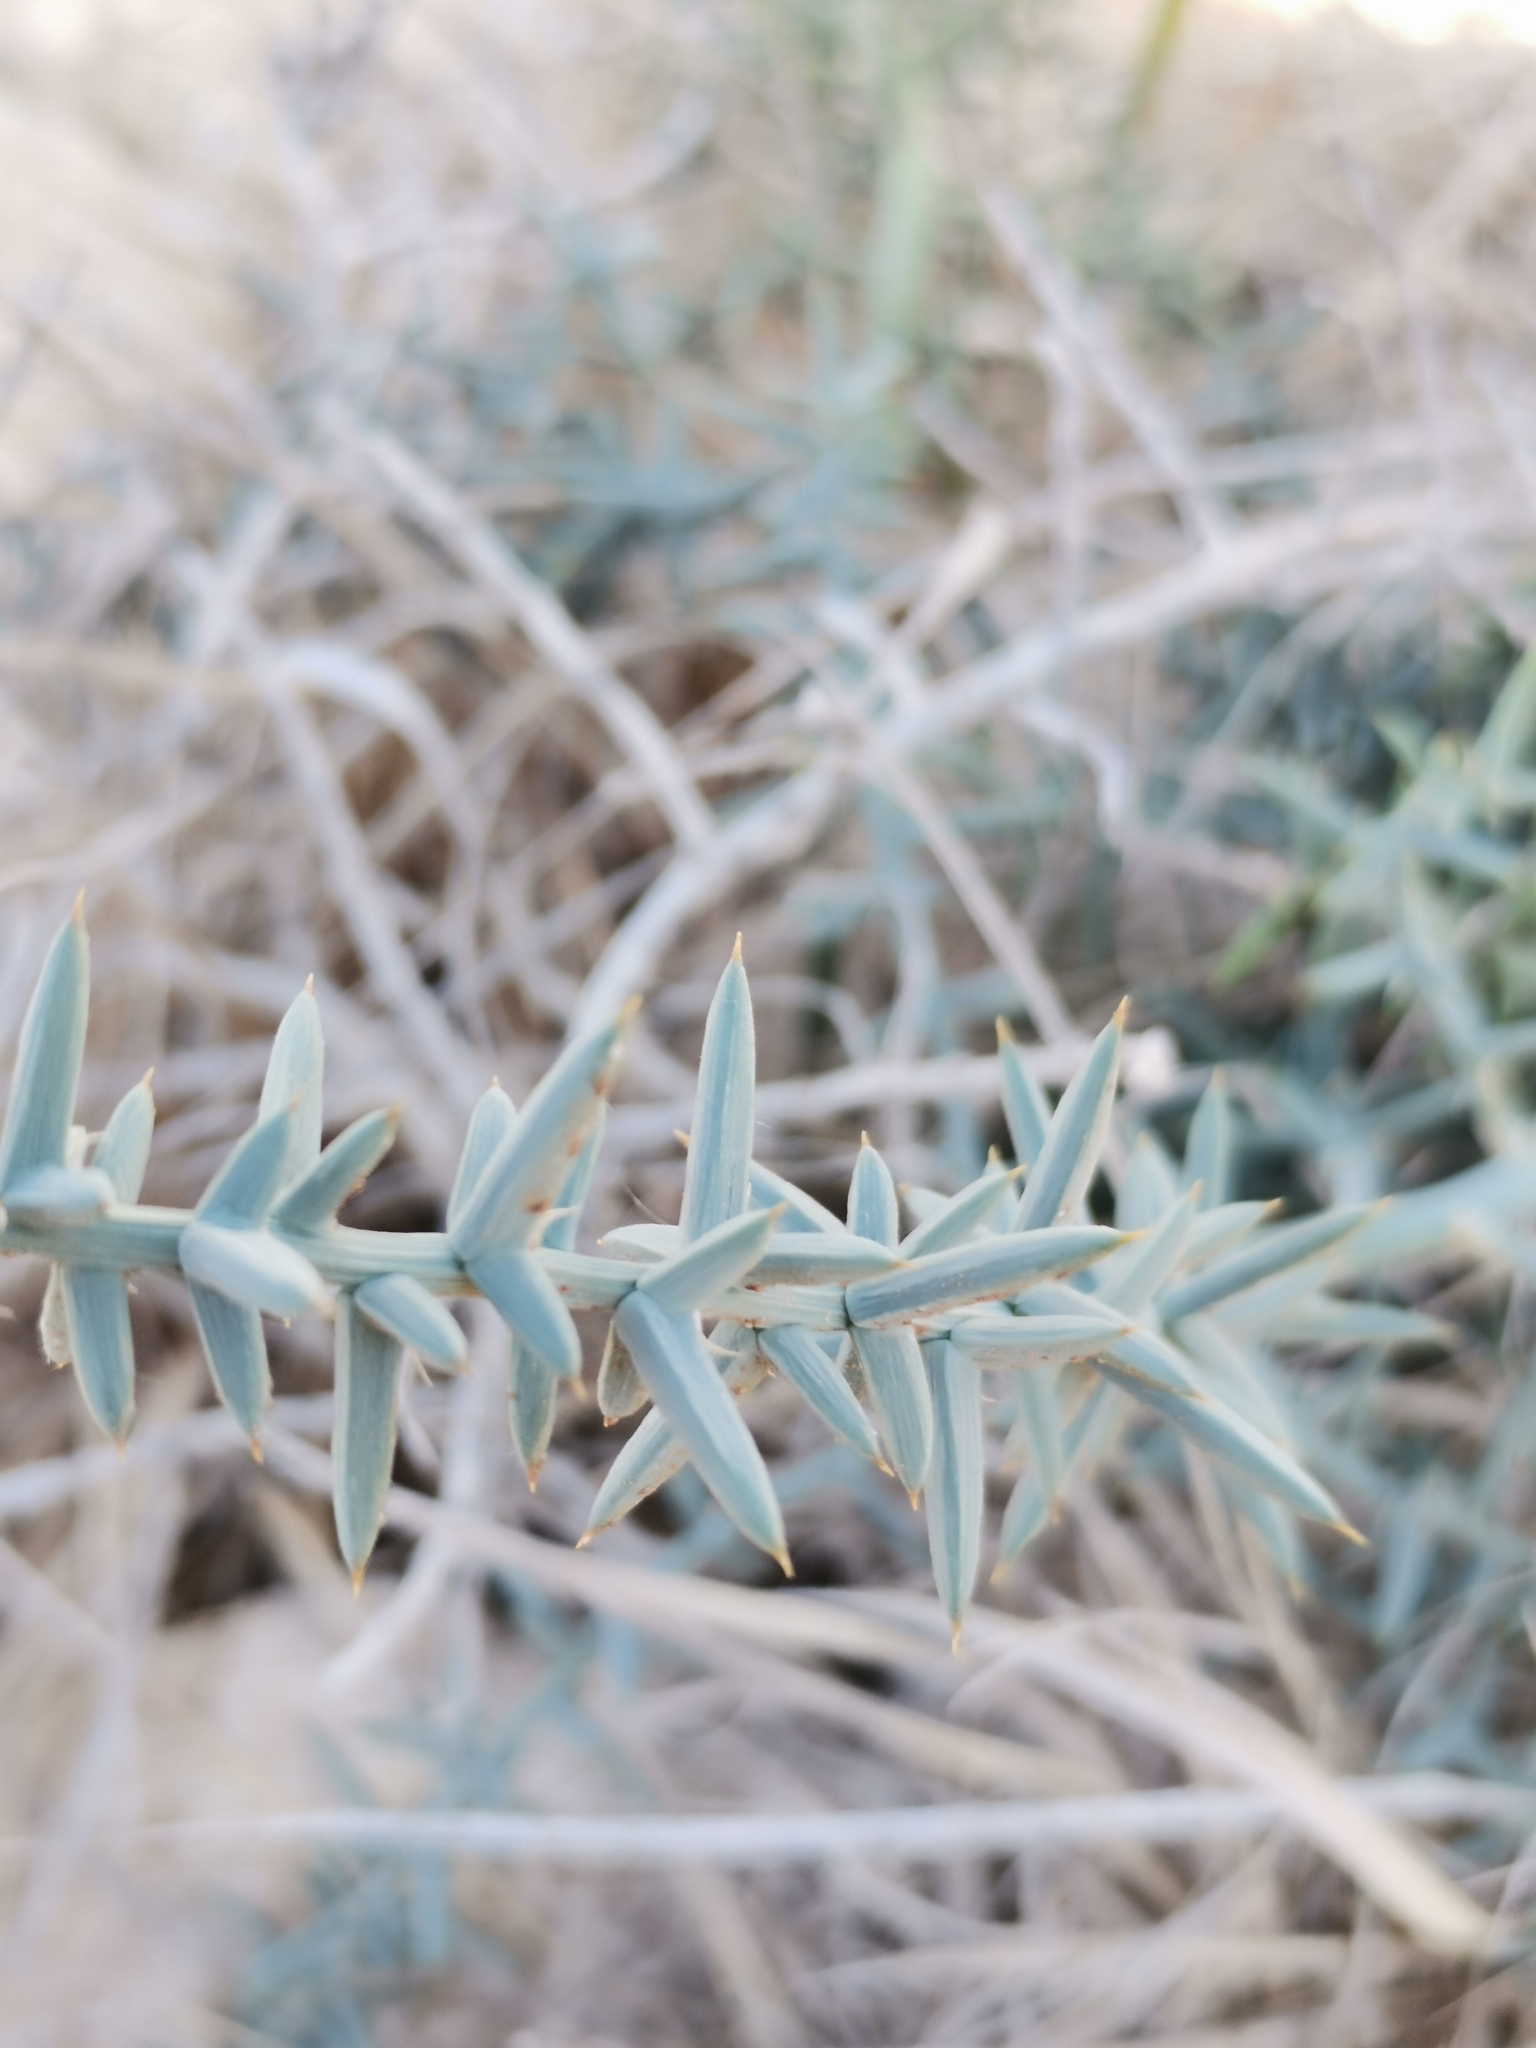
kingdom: Plantae
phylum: Tracheophyta
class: Liliopsida
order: Asparagales
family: Asparagaceae
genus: Asparagus
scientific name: Asparagus horridus
